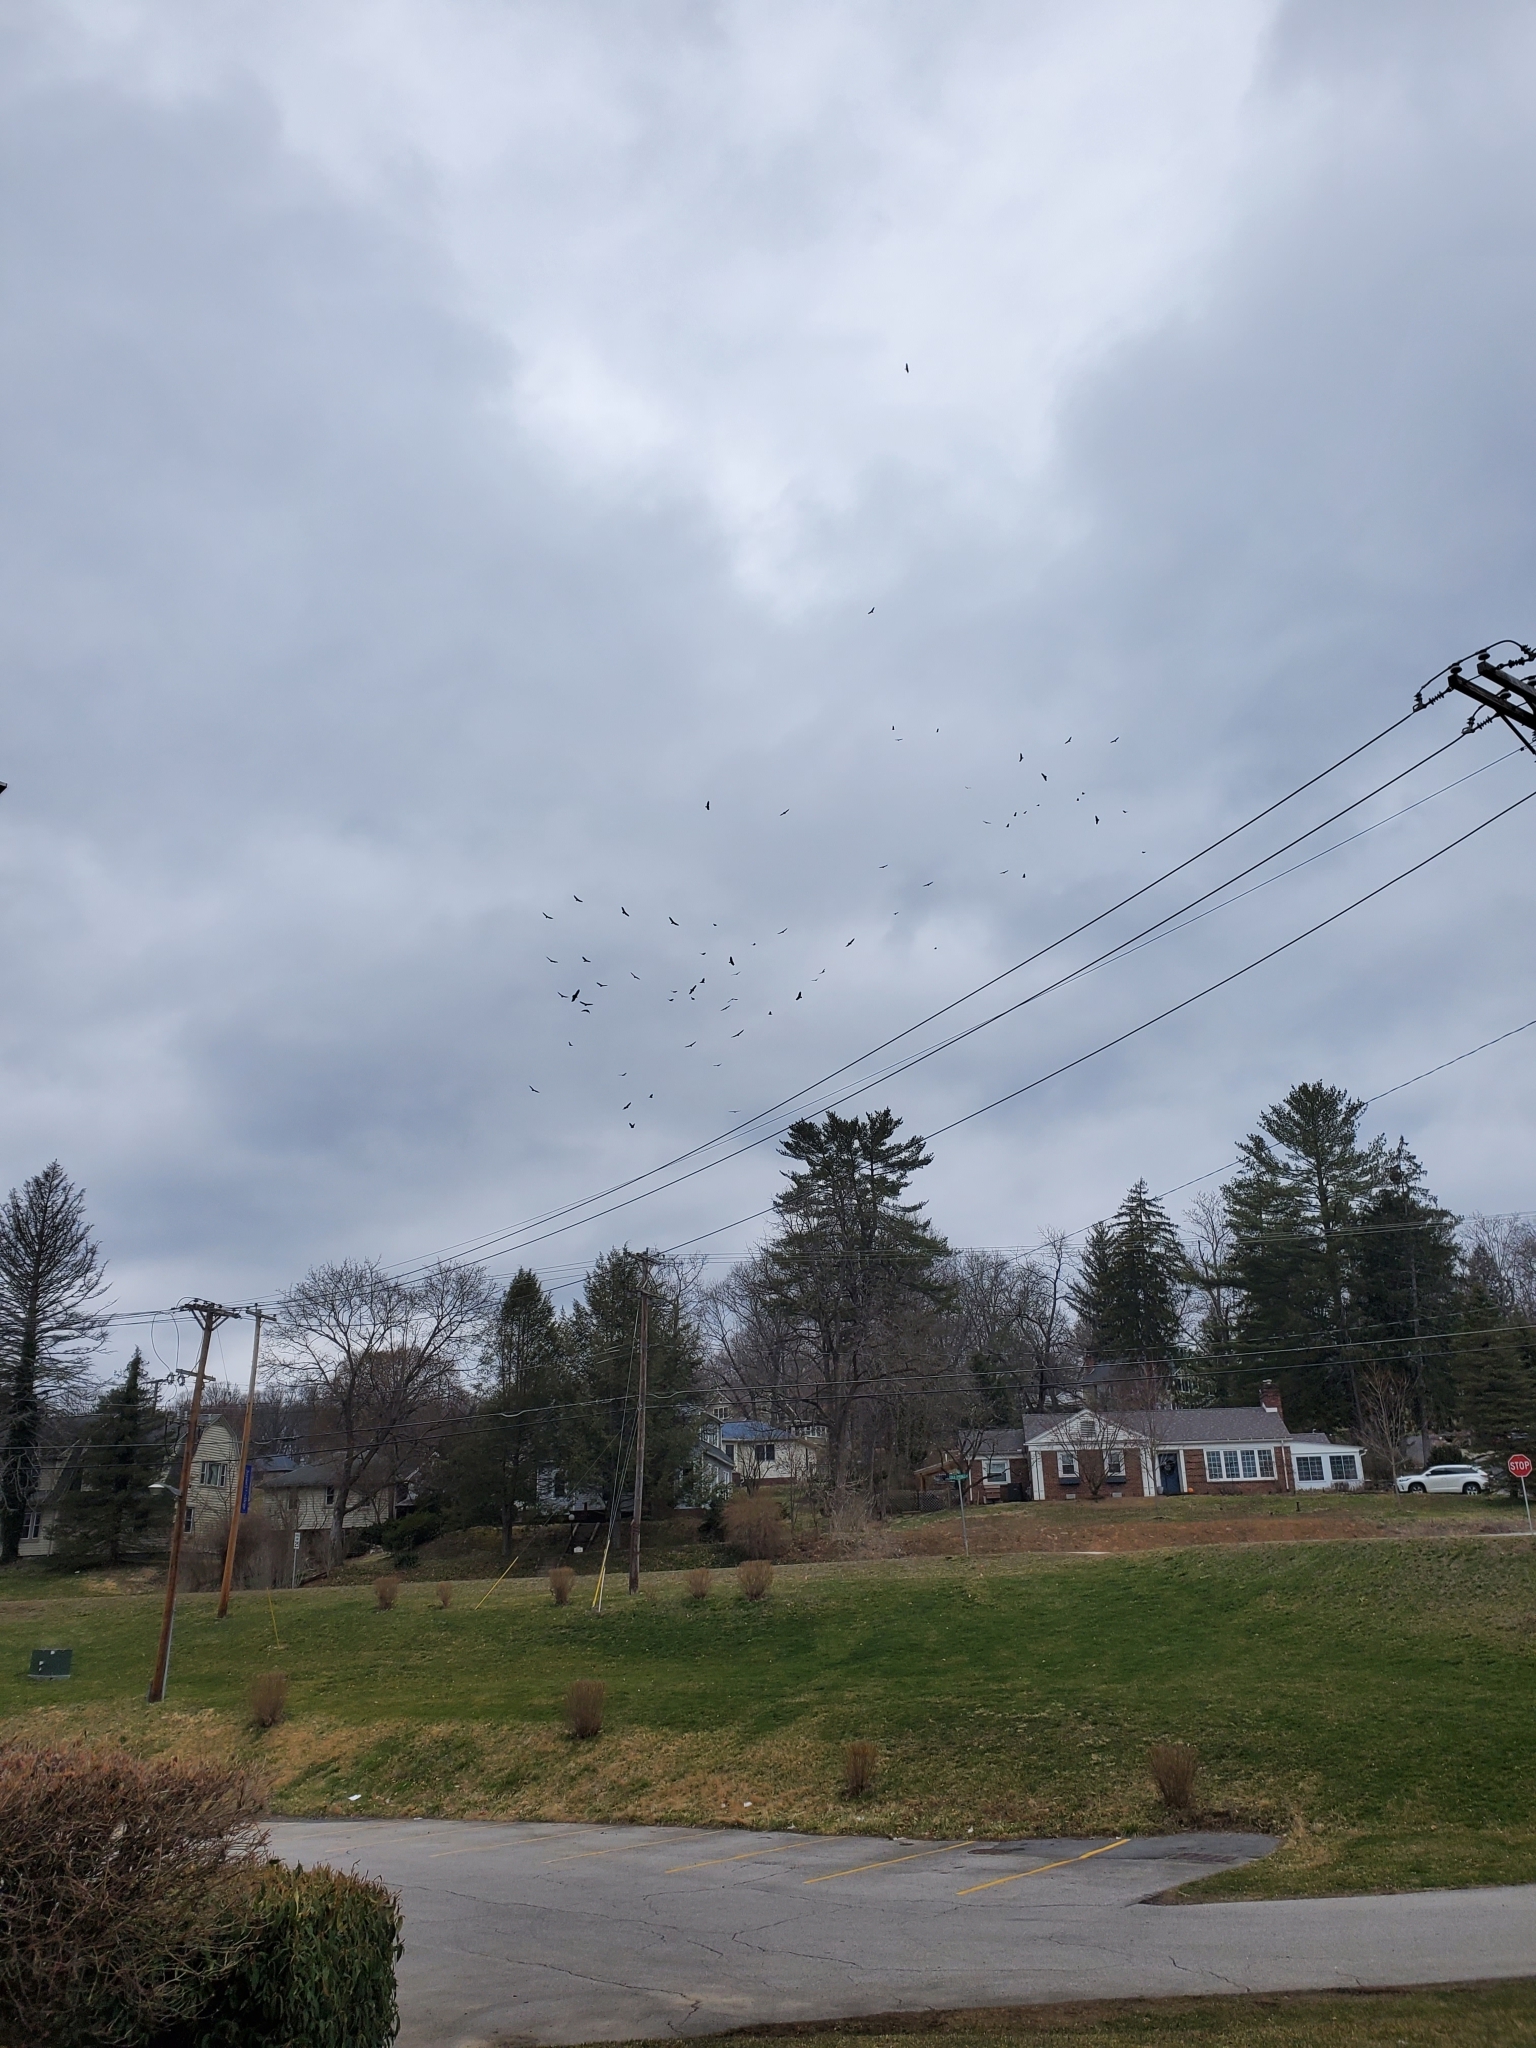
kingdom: Animalia
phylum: Chordata
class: Aves
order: Accipitriformes
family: Cathartidae
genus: Cathartes
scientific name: Cathartes aura
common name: Turkey vulture
